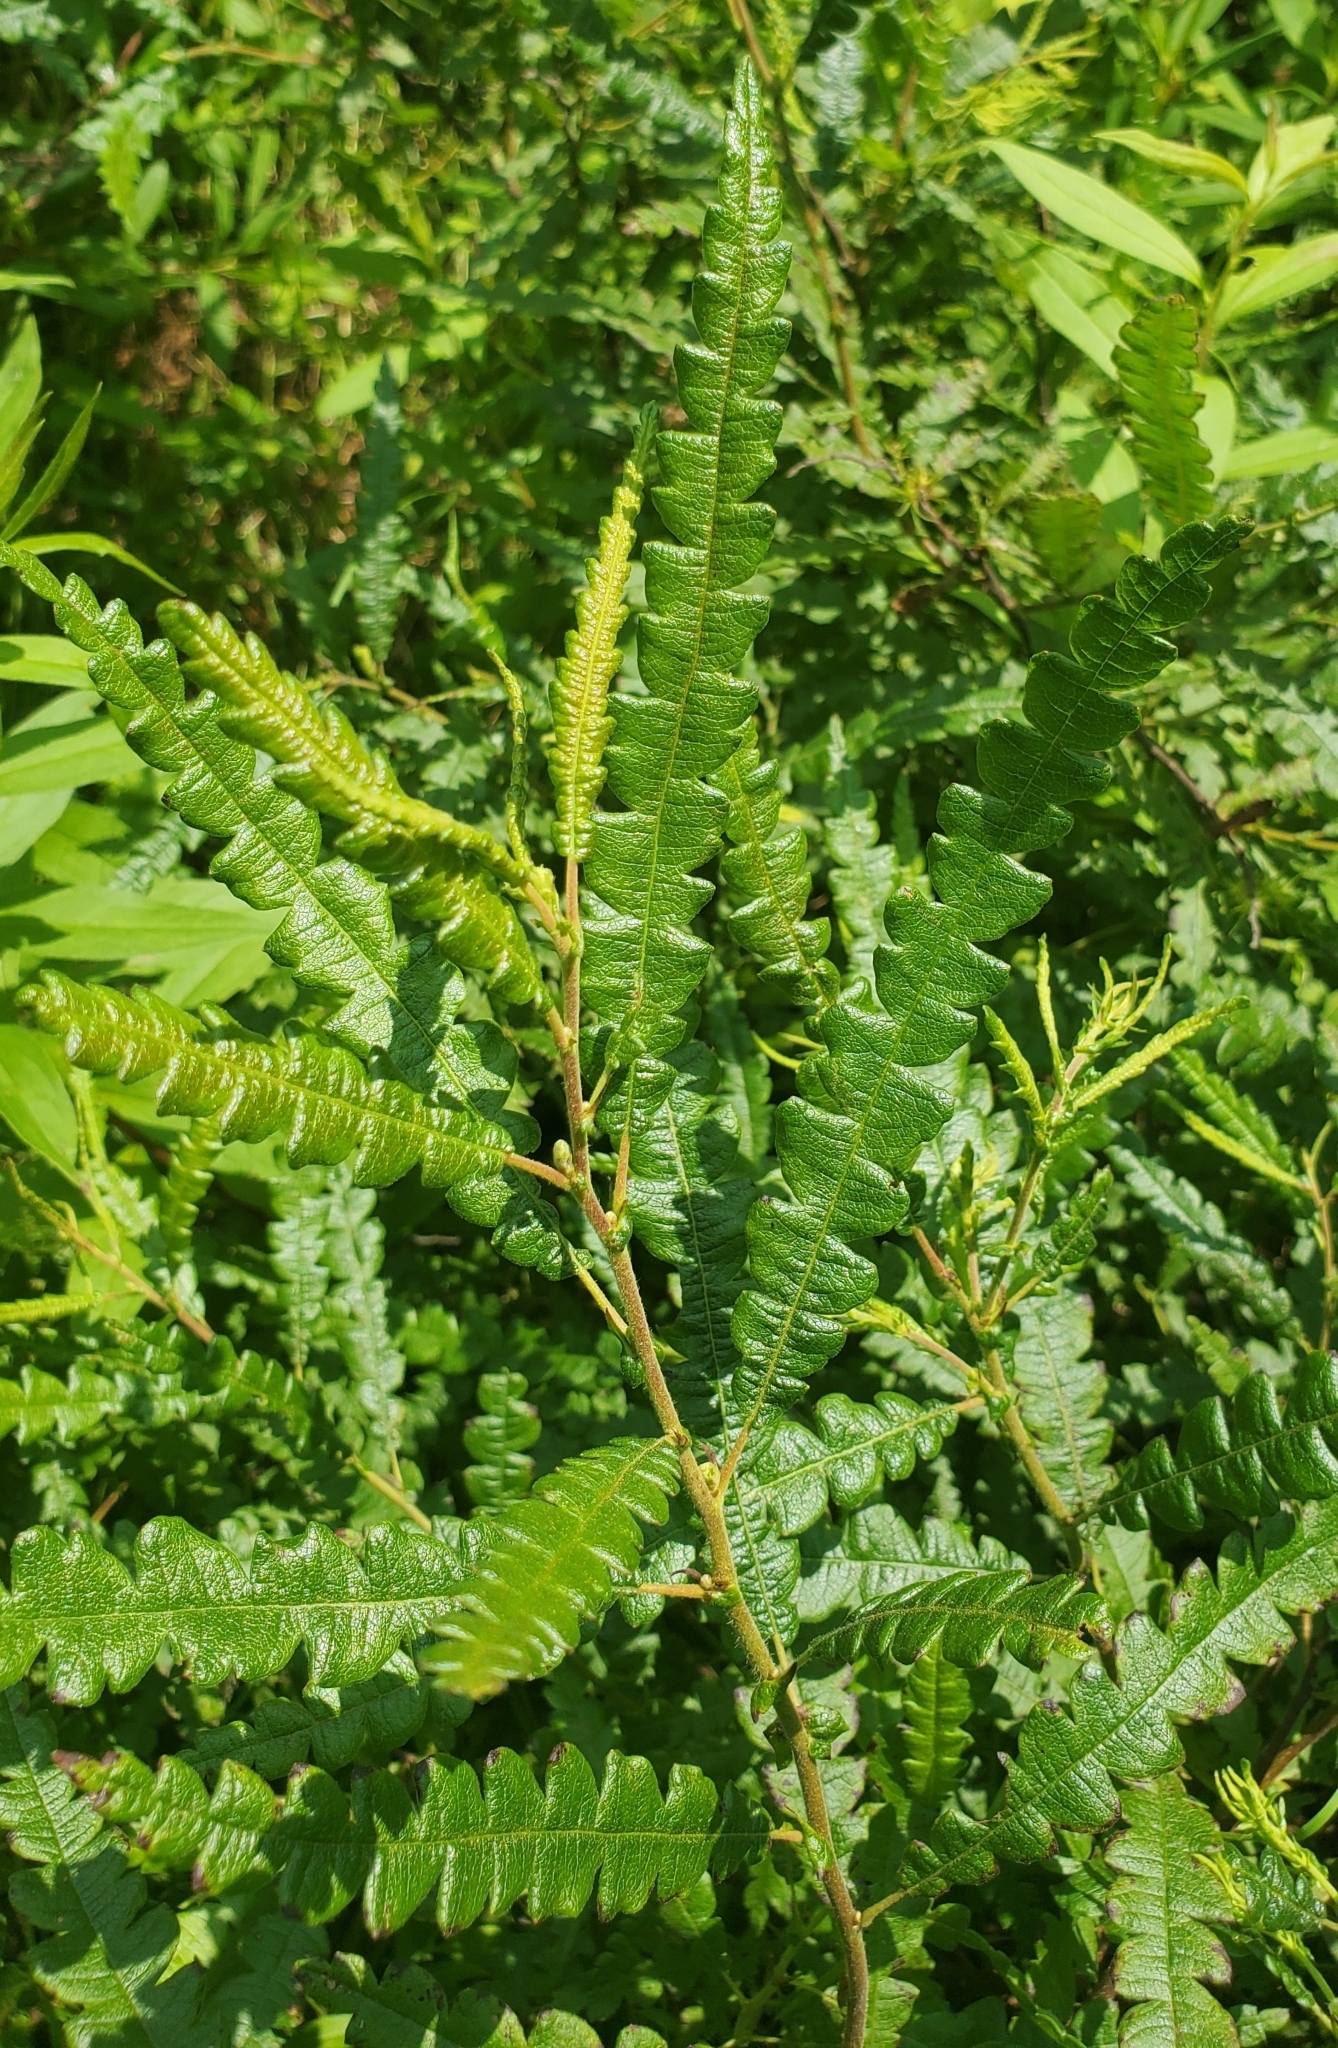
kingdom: Plantae
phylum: Tracheophyta
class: Magnoliopsida
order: Fagales
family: Myricaceae
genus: Comptonia
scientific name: Comptonia peregrina
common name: Sweet-fern
